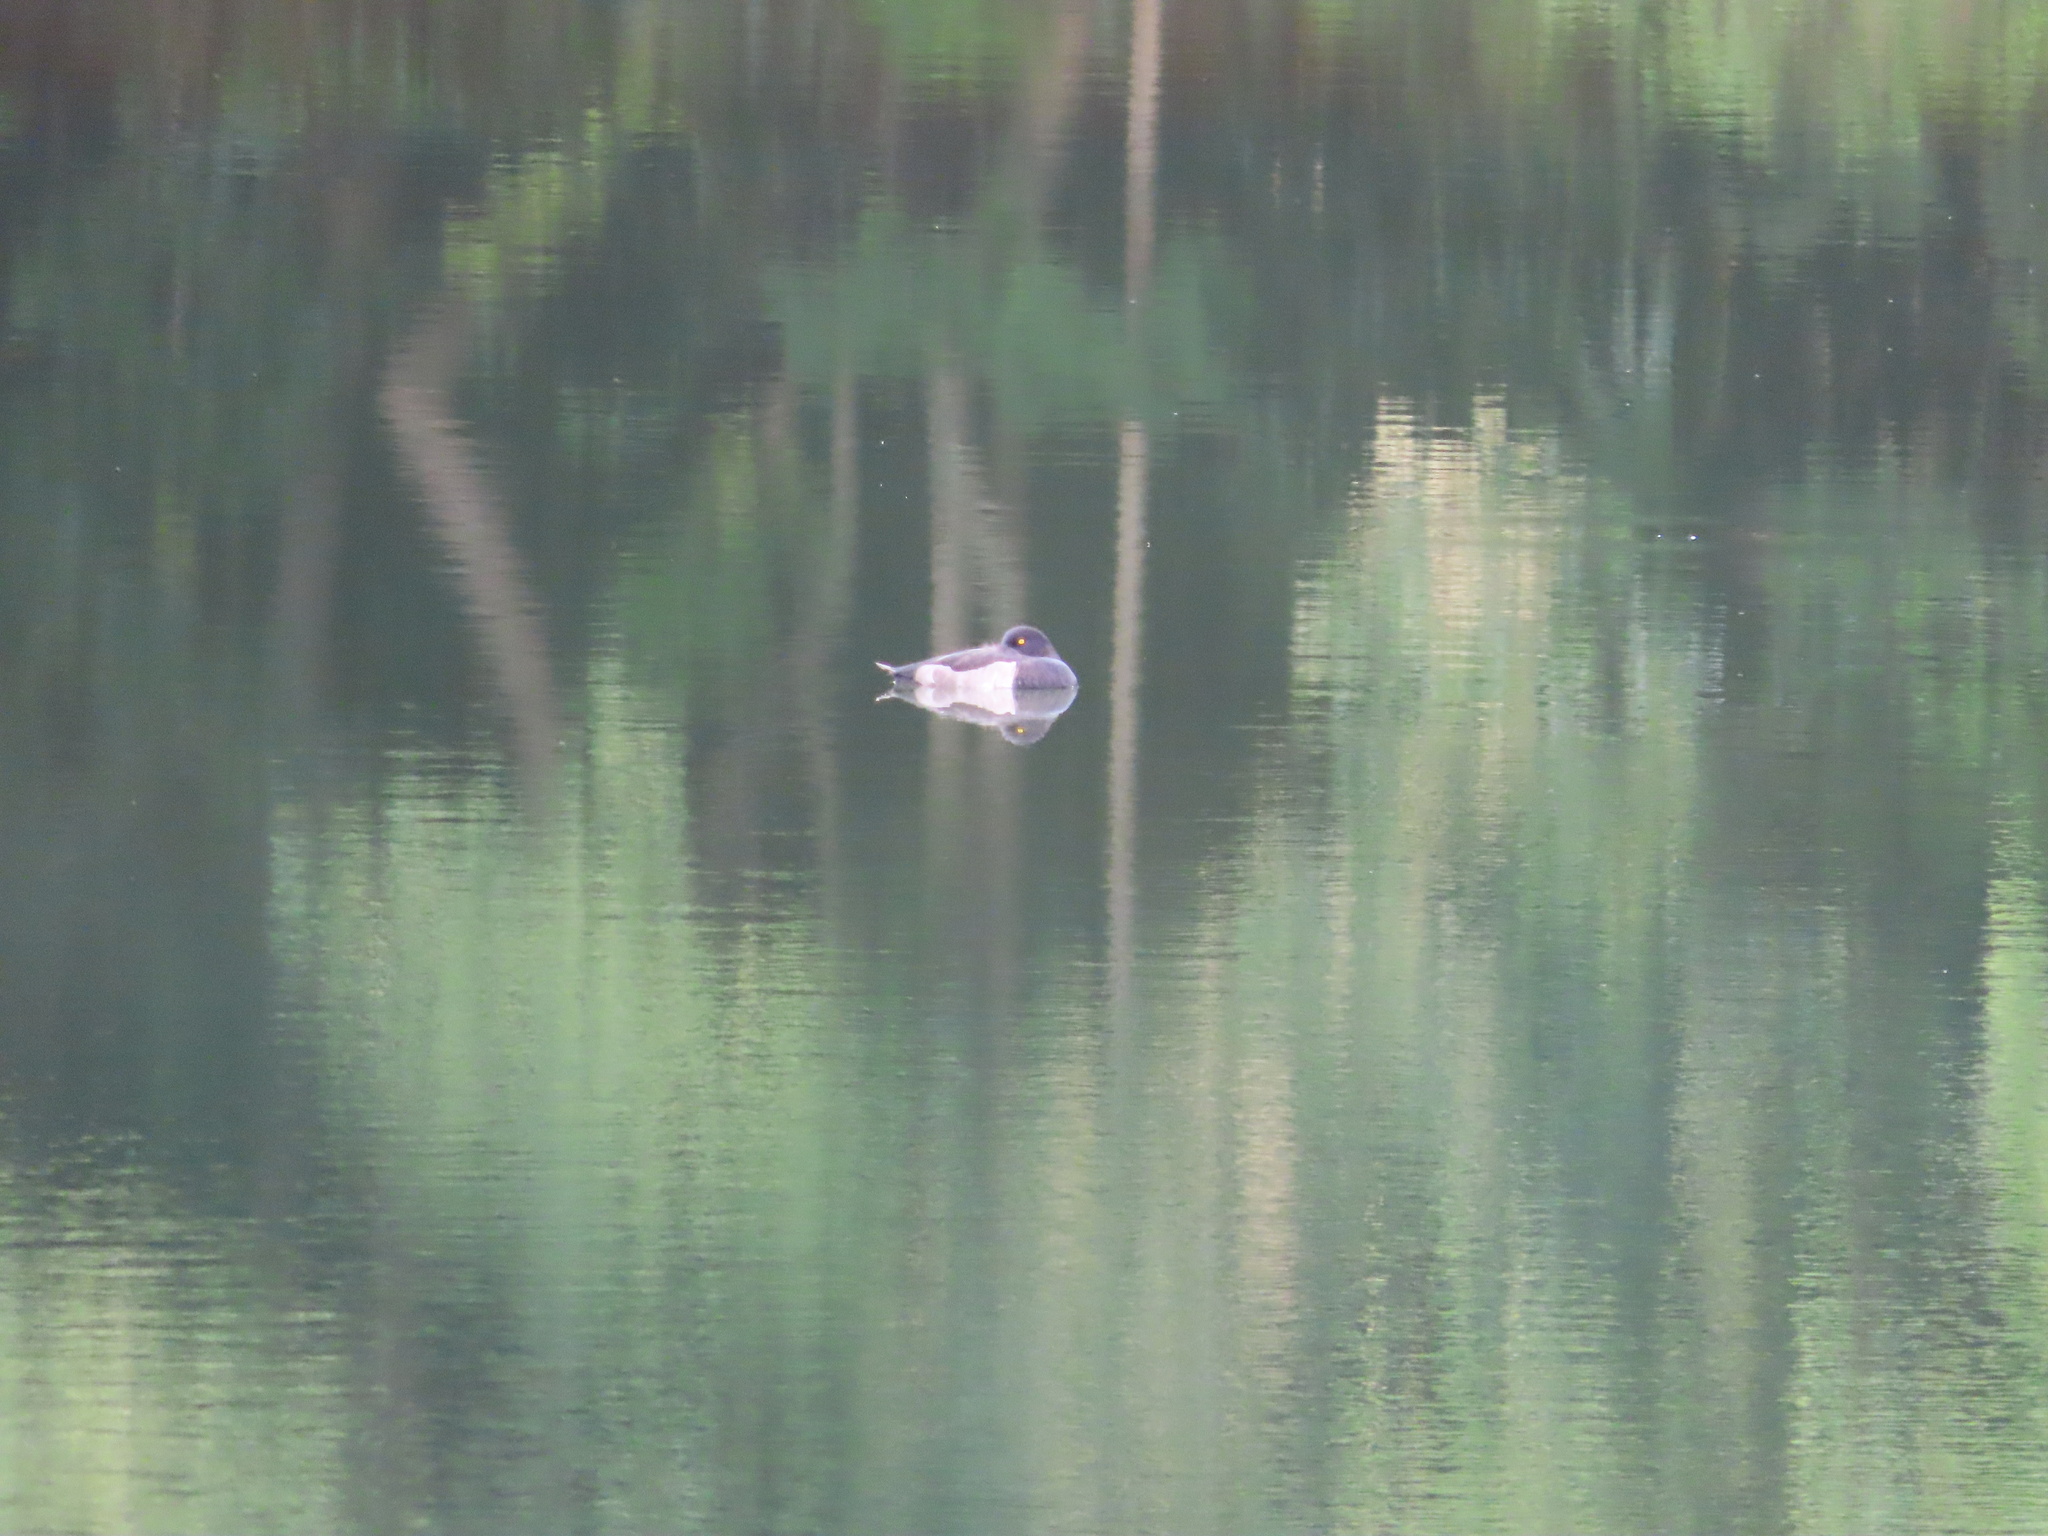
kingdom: Animalia
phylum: Chordata
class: Aves
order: Anseriformes
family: Anatidae
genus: Aythya
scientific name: Aythya fuligula
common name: Tufted duck
